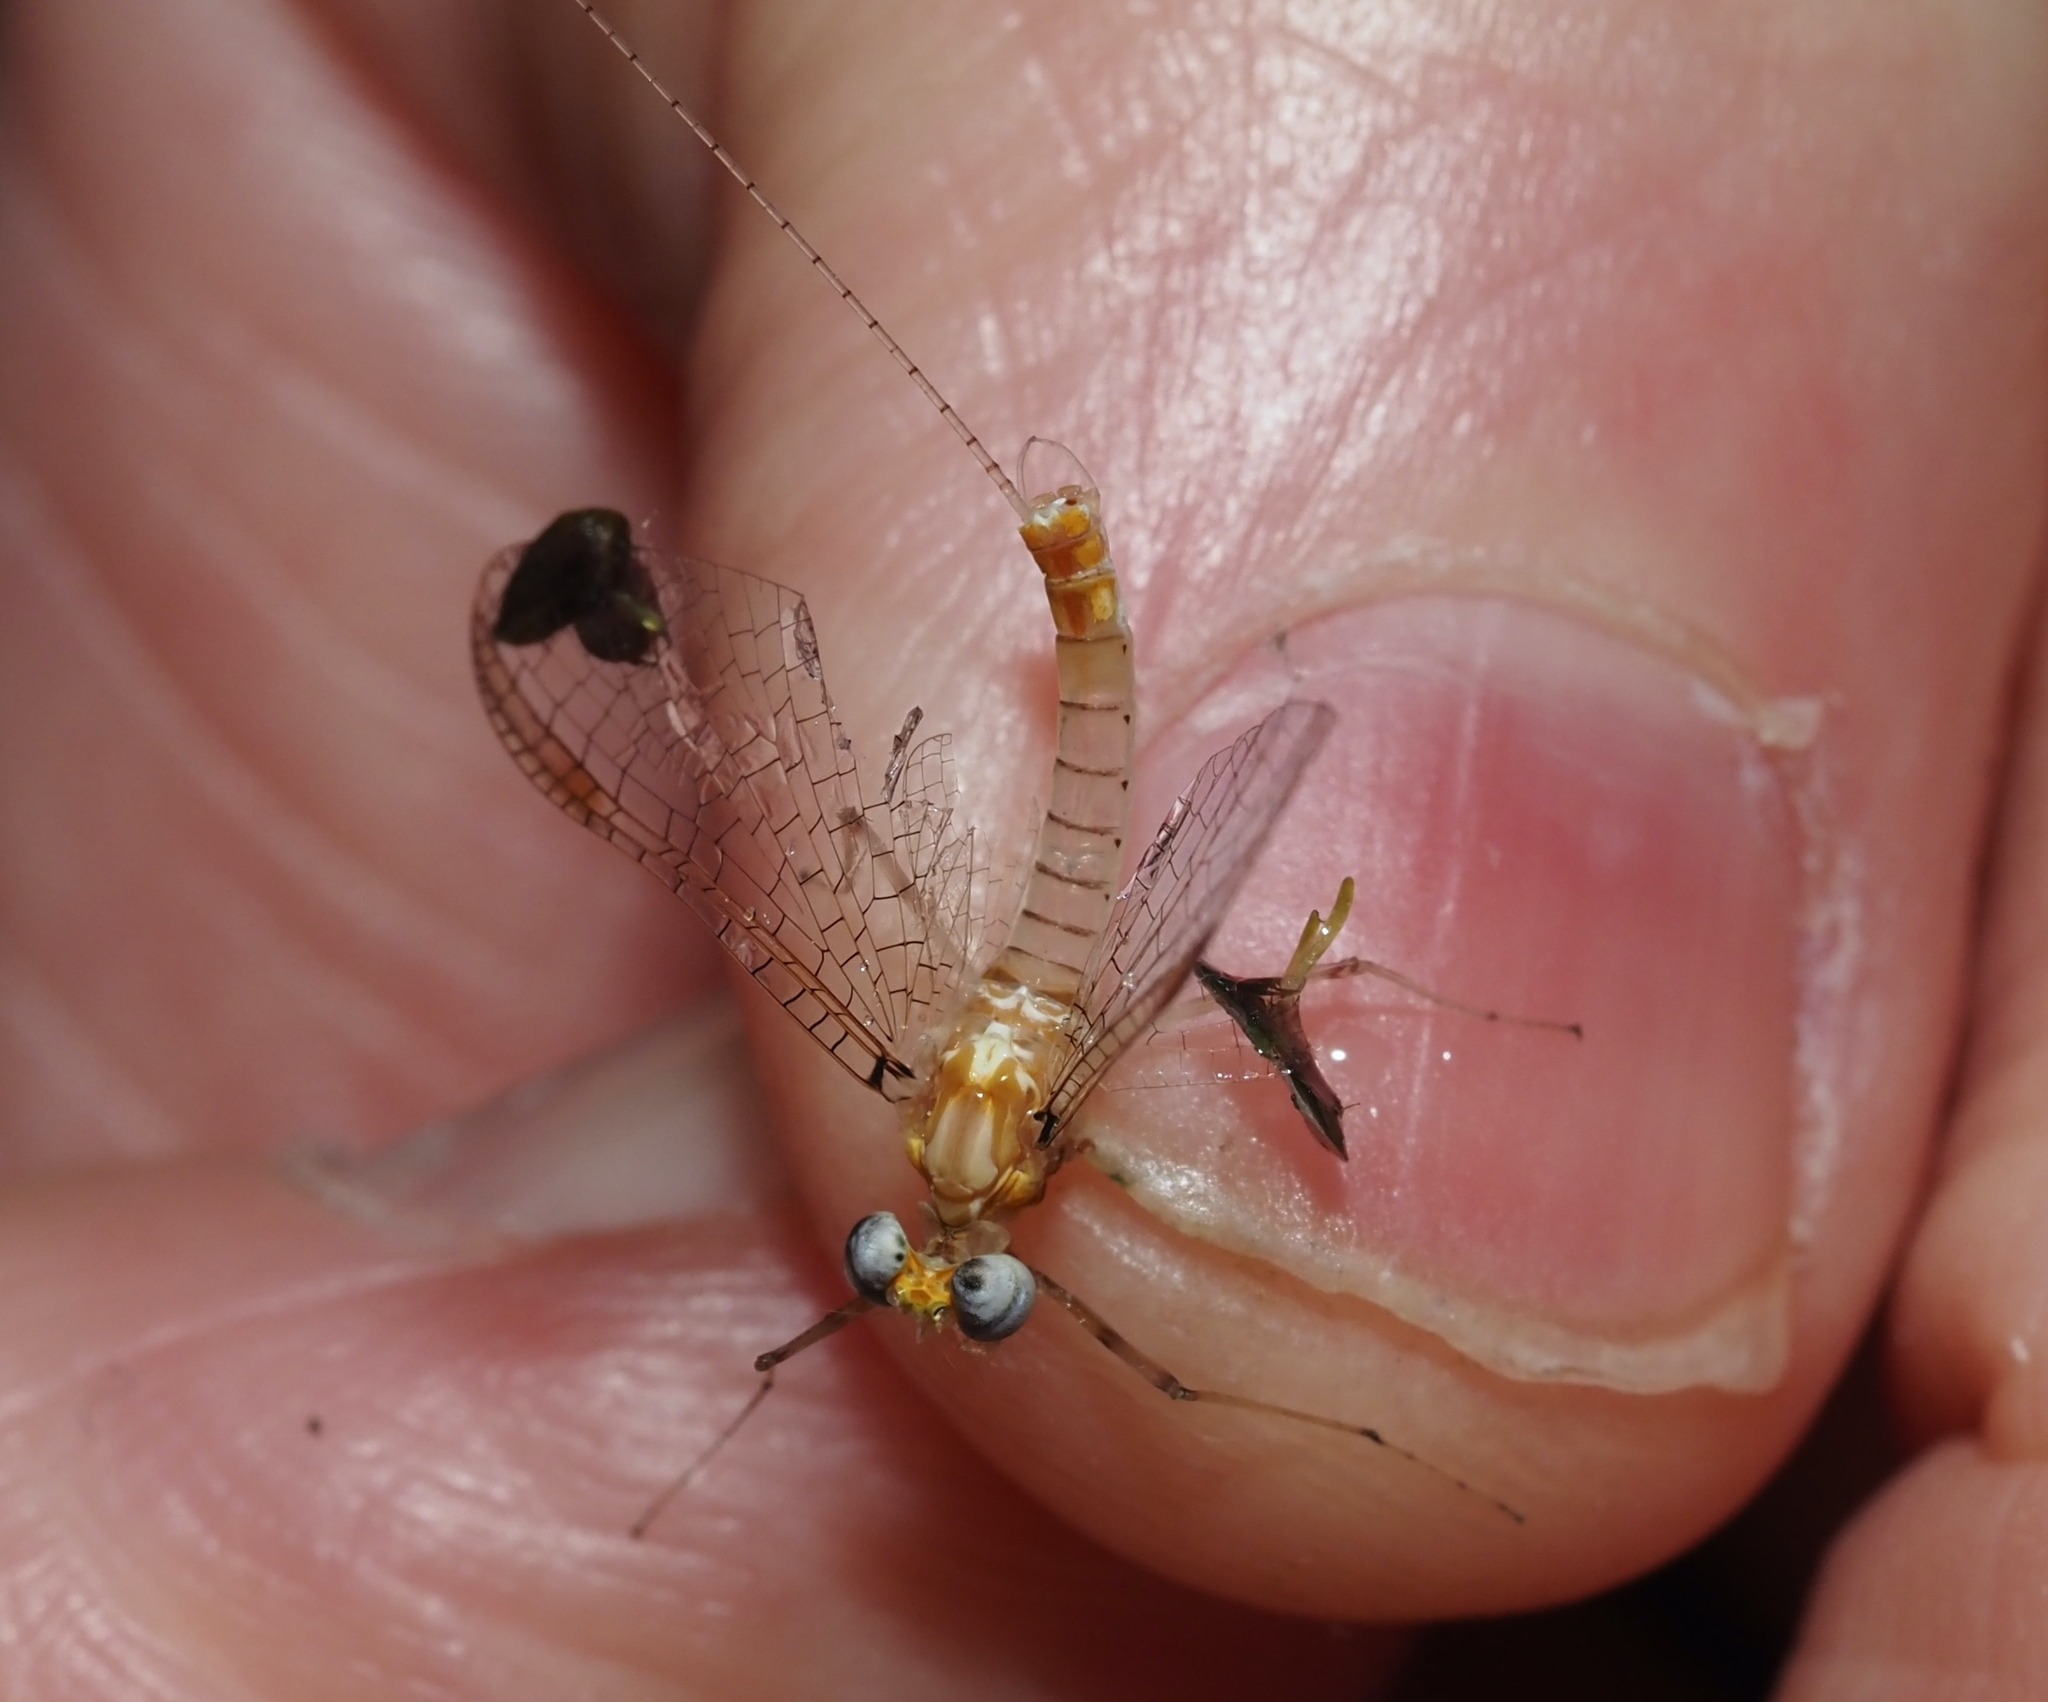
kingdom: Animalia
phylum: Arthropoda
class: Insecta
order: Ephemeroptera
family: Heptageniidae
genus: Maccaffertium
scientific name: Maccaffertium modestum
